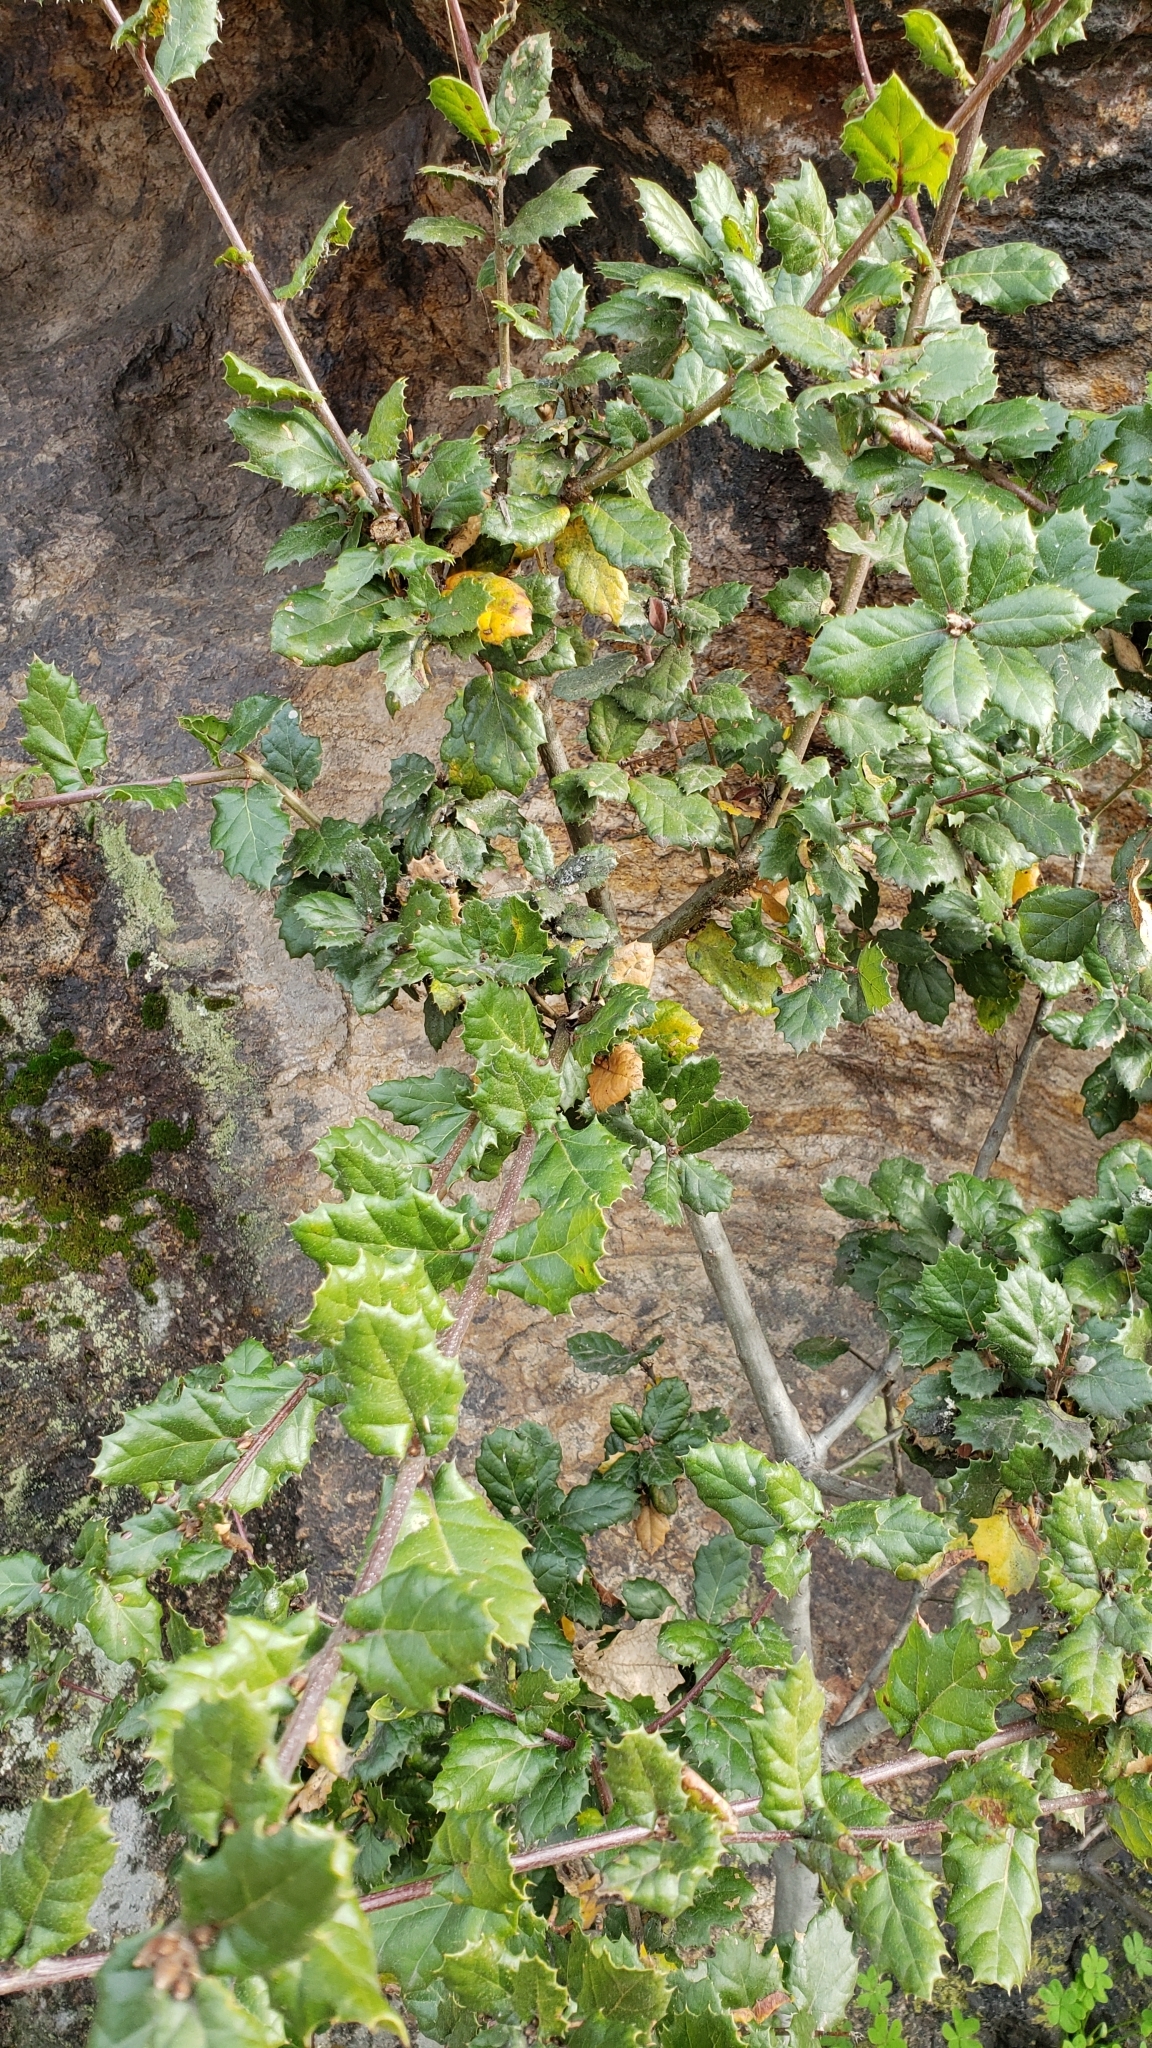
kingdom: Plantae
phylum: Tracheophyta
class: Magnoliopsida
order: Fagales
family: Fagaceae
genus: Quercus
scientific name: Quercus agrifolia
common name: California live oak
